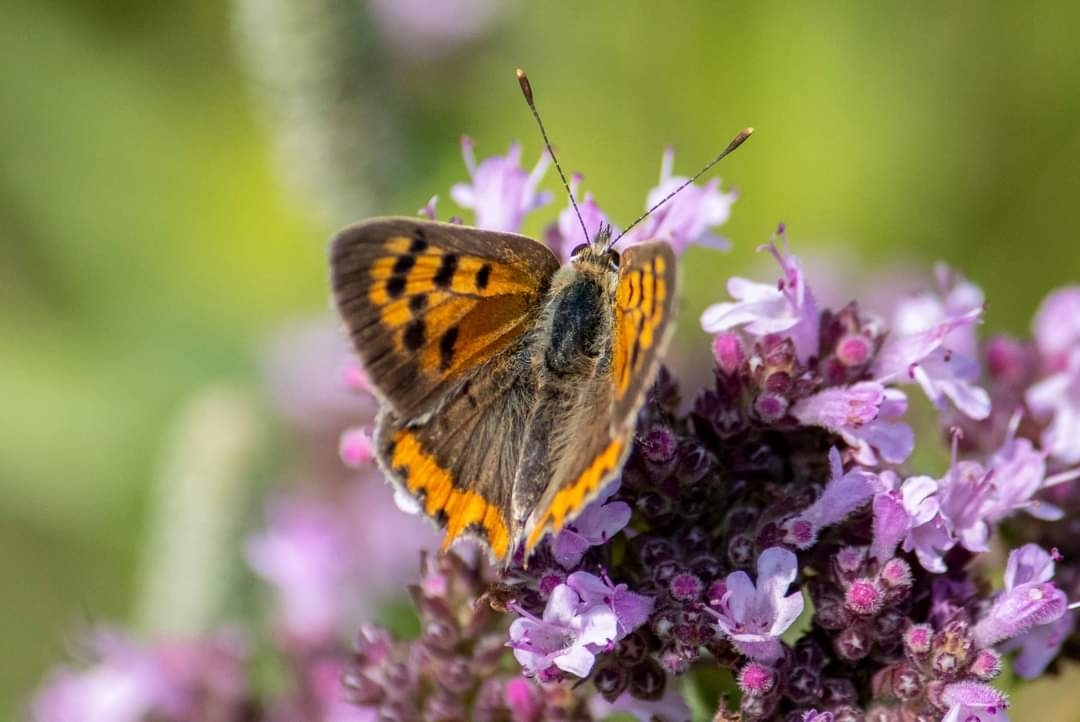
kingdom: Animalia
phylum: Arthropoda
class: Insecta
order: Lepidoptera
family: Lycaenidae
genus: Lycaena
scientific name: Lycaena phlaeas
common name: Small copper
